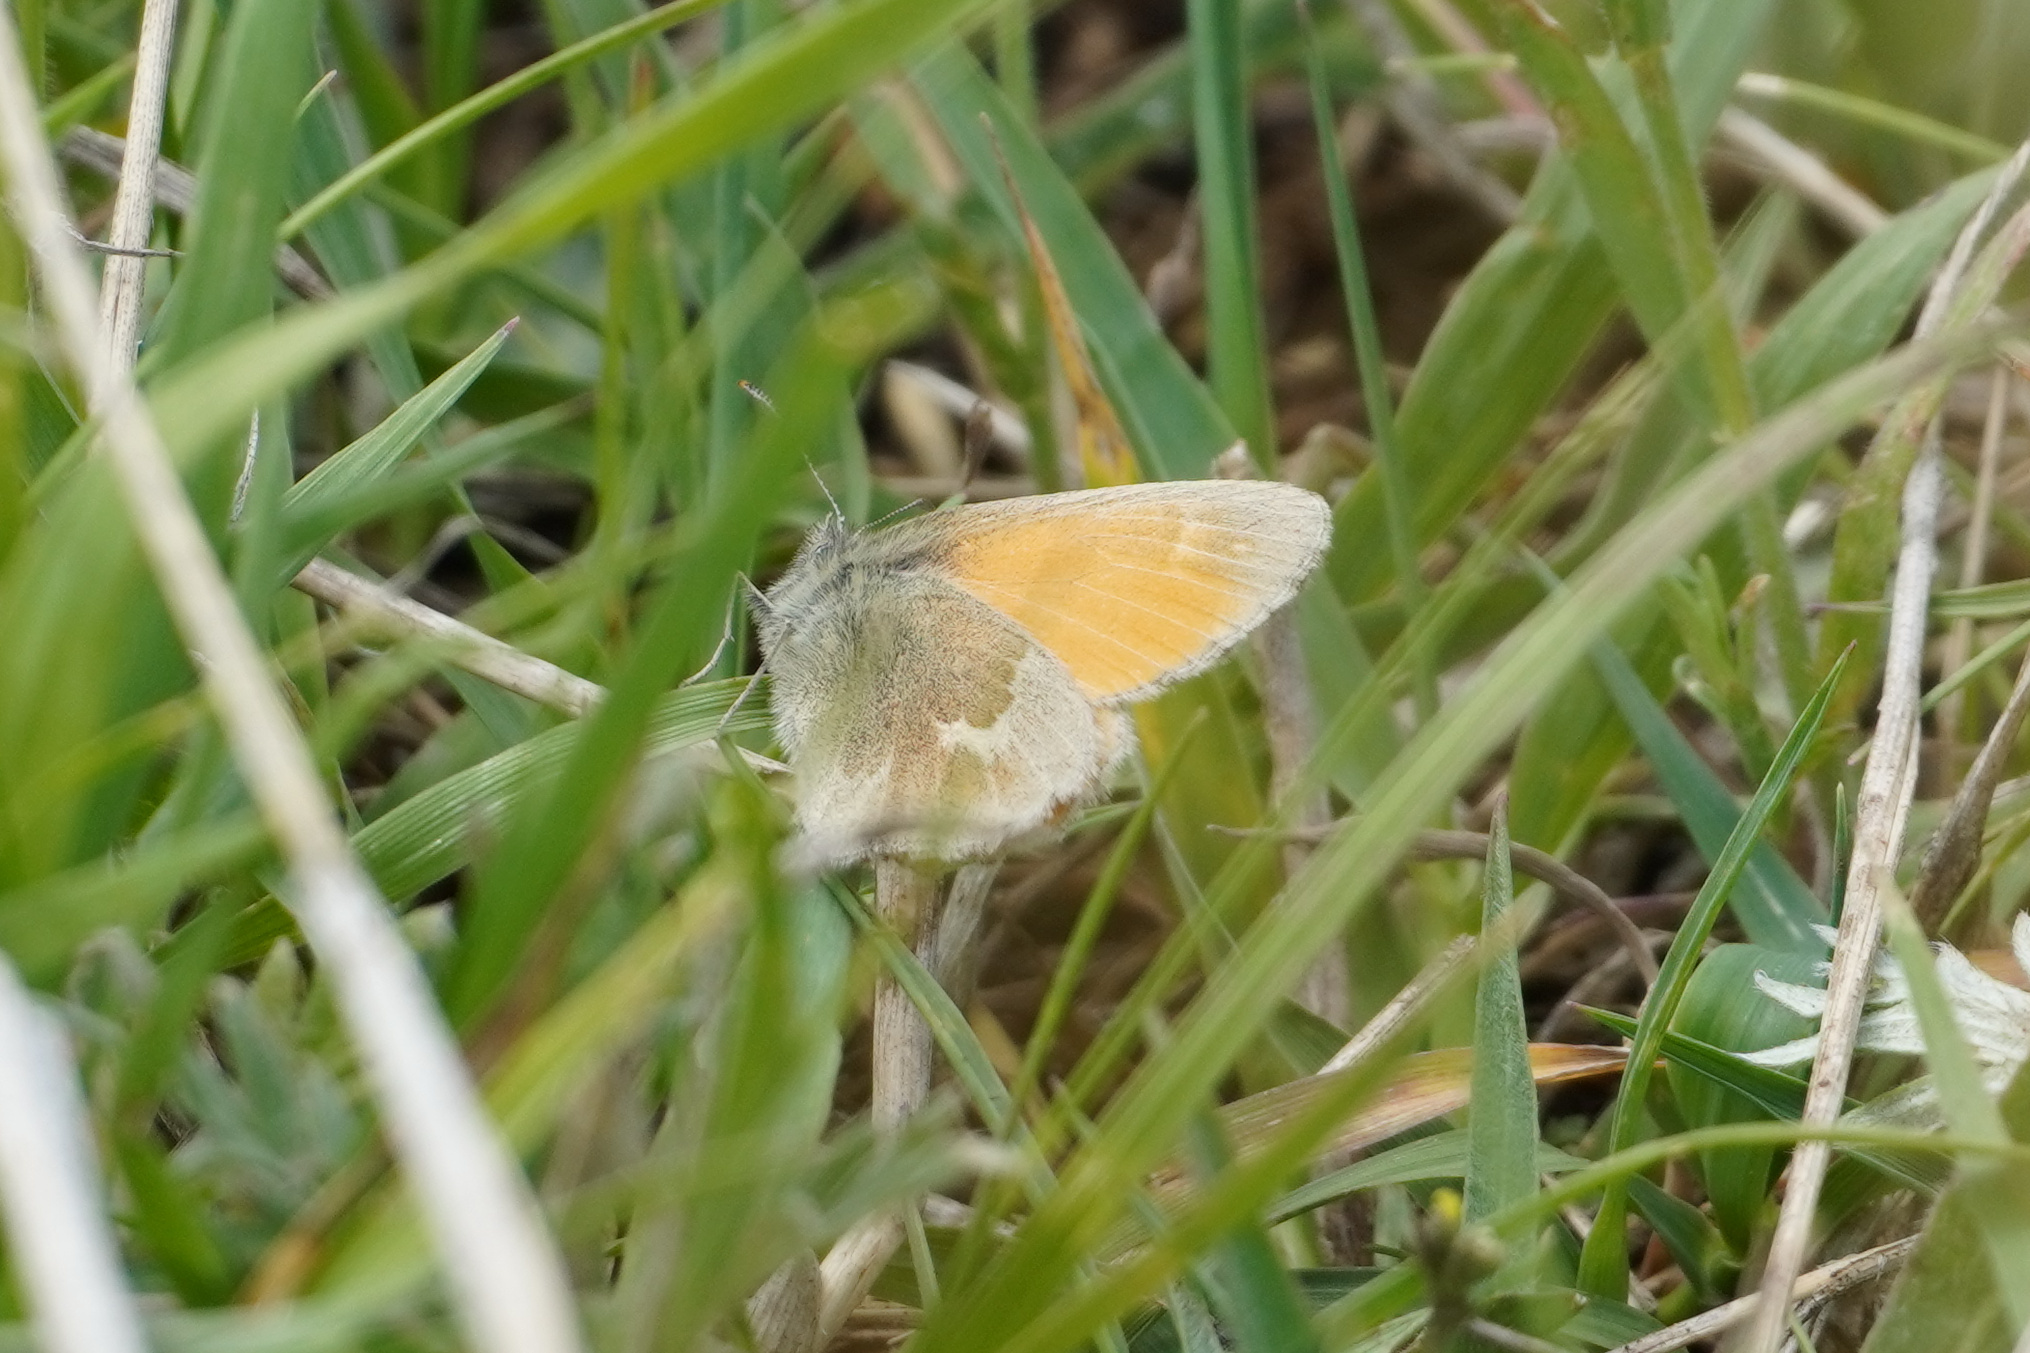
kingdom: Animalia
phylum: Arthropoda
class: Insecta
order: Lepidoptera
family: Nymphalidae
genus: Coenonympha
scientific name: Coenonympha california
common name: Common ringlet
